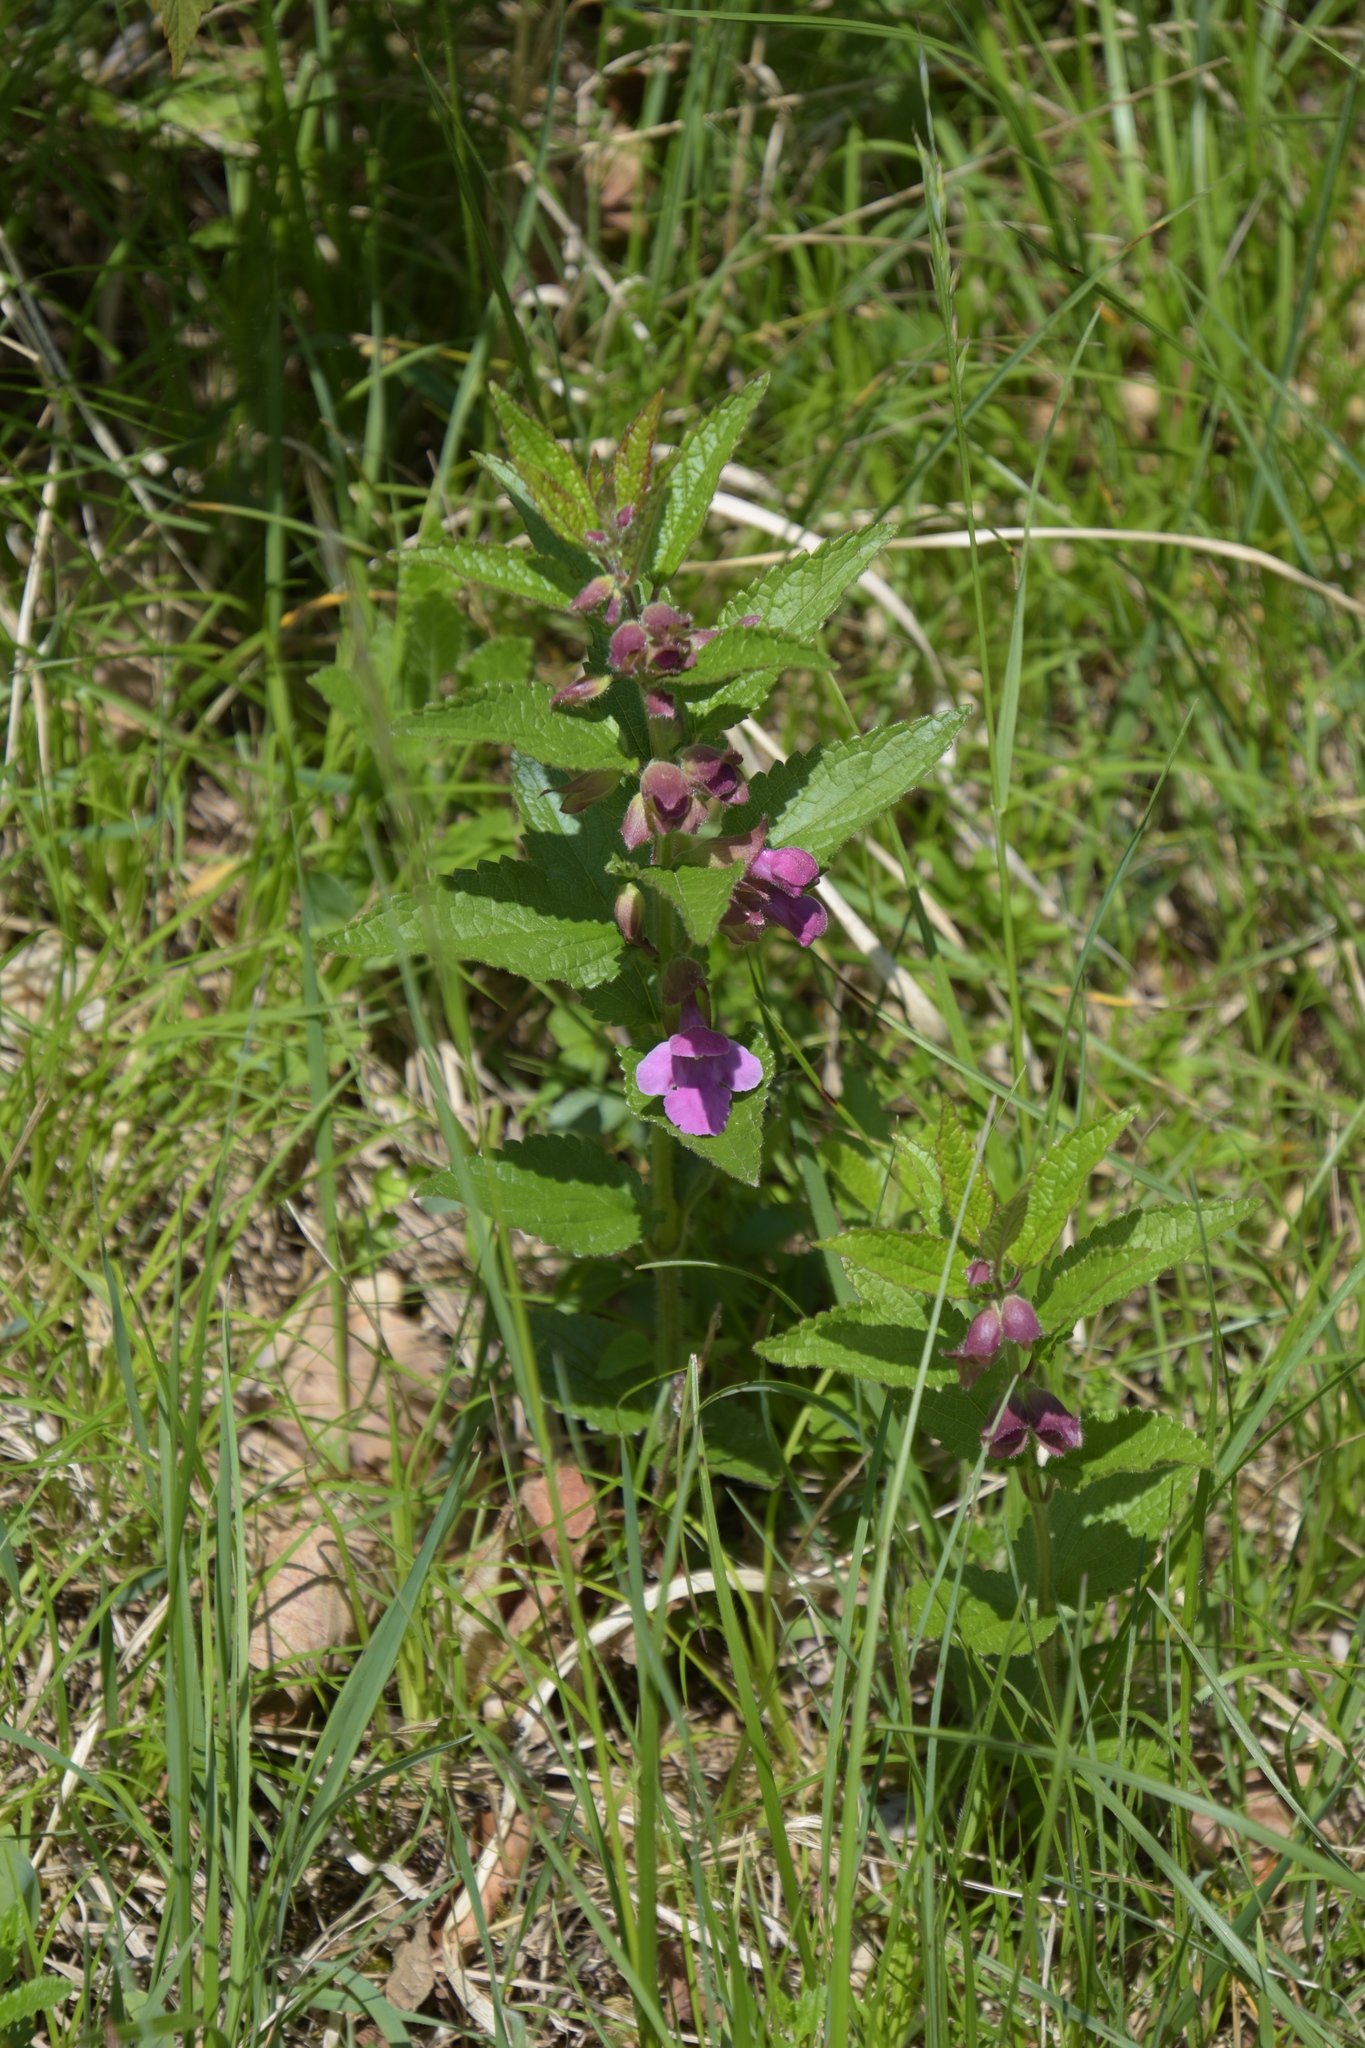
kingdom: Plantae
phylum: Tracheophyta
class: Magnoliopsida
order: Lamiales
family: Lamiaceae
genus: Melittis
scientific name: Melittis melissophyllum
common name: Bastard balm
